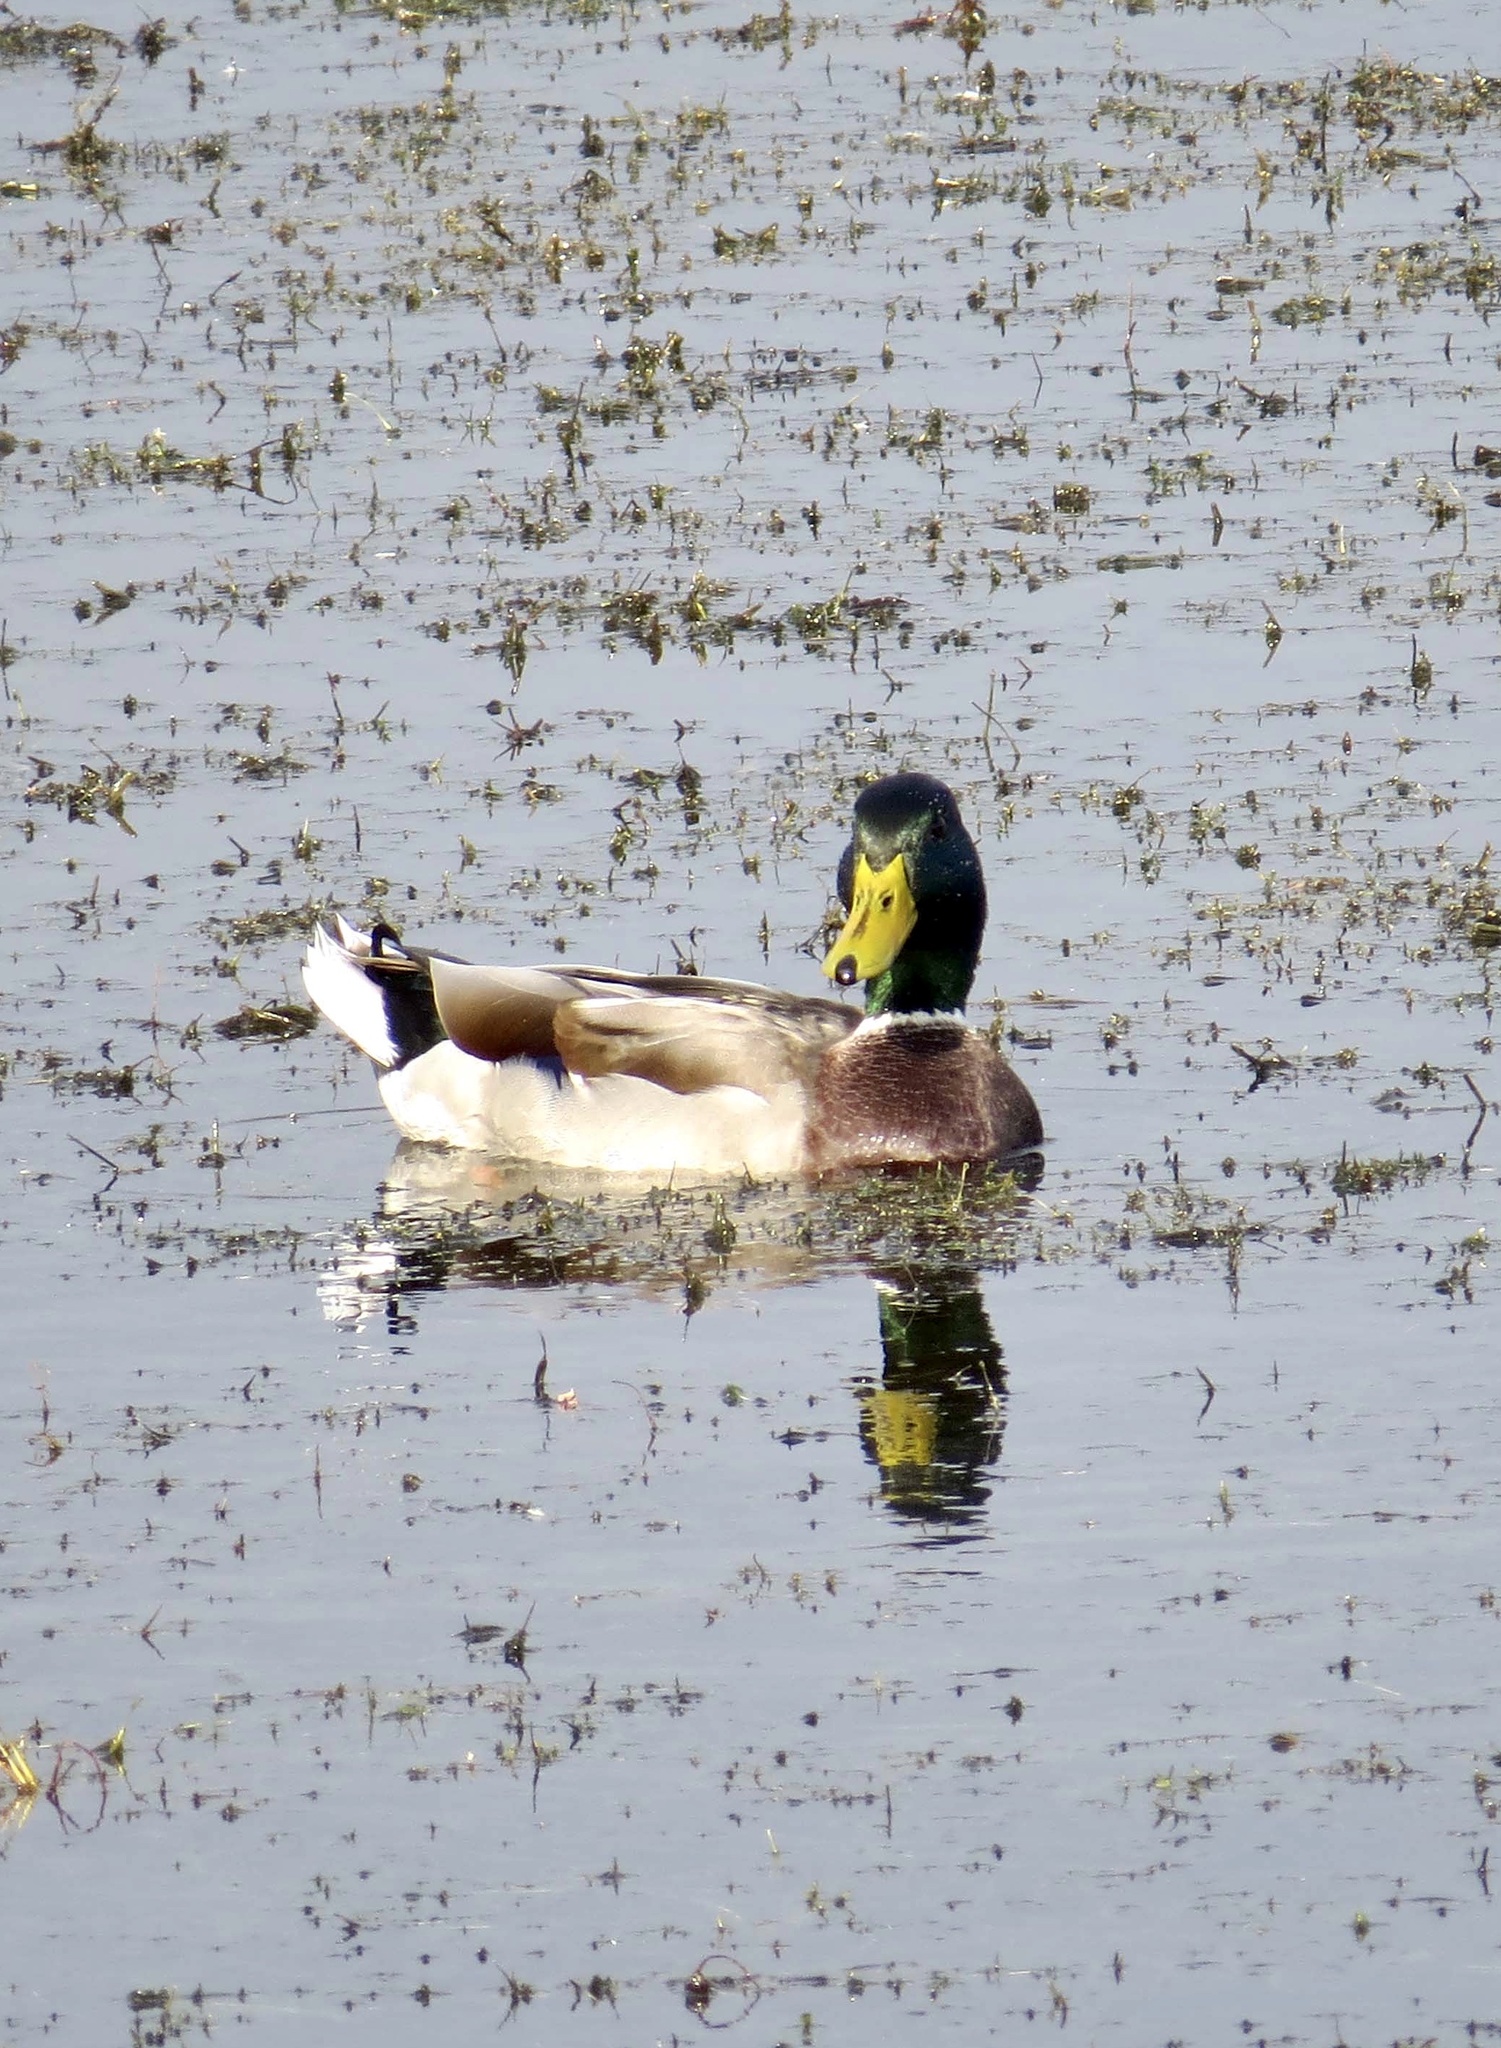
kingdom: Animalia
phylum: Chordata
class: Aves
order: Anseriformes
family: Anatidae
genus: Anas
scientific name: Anas platyrhynchos
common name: Mallard
